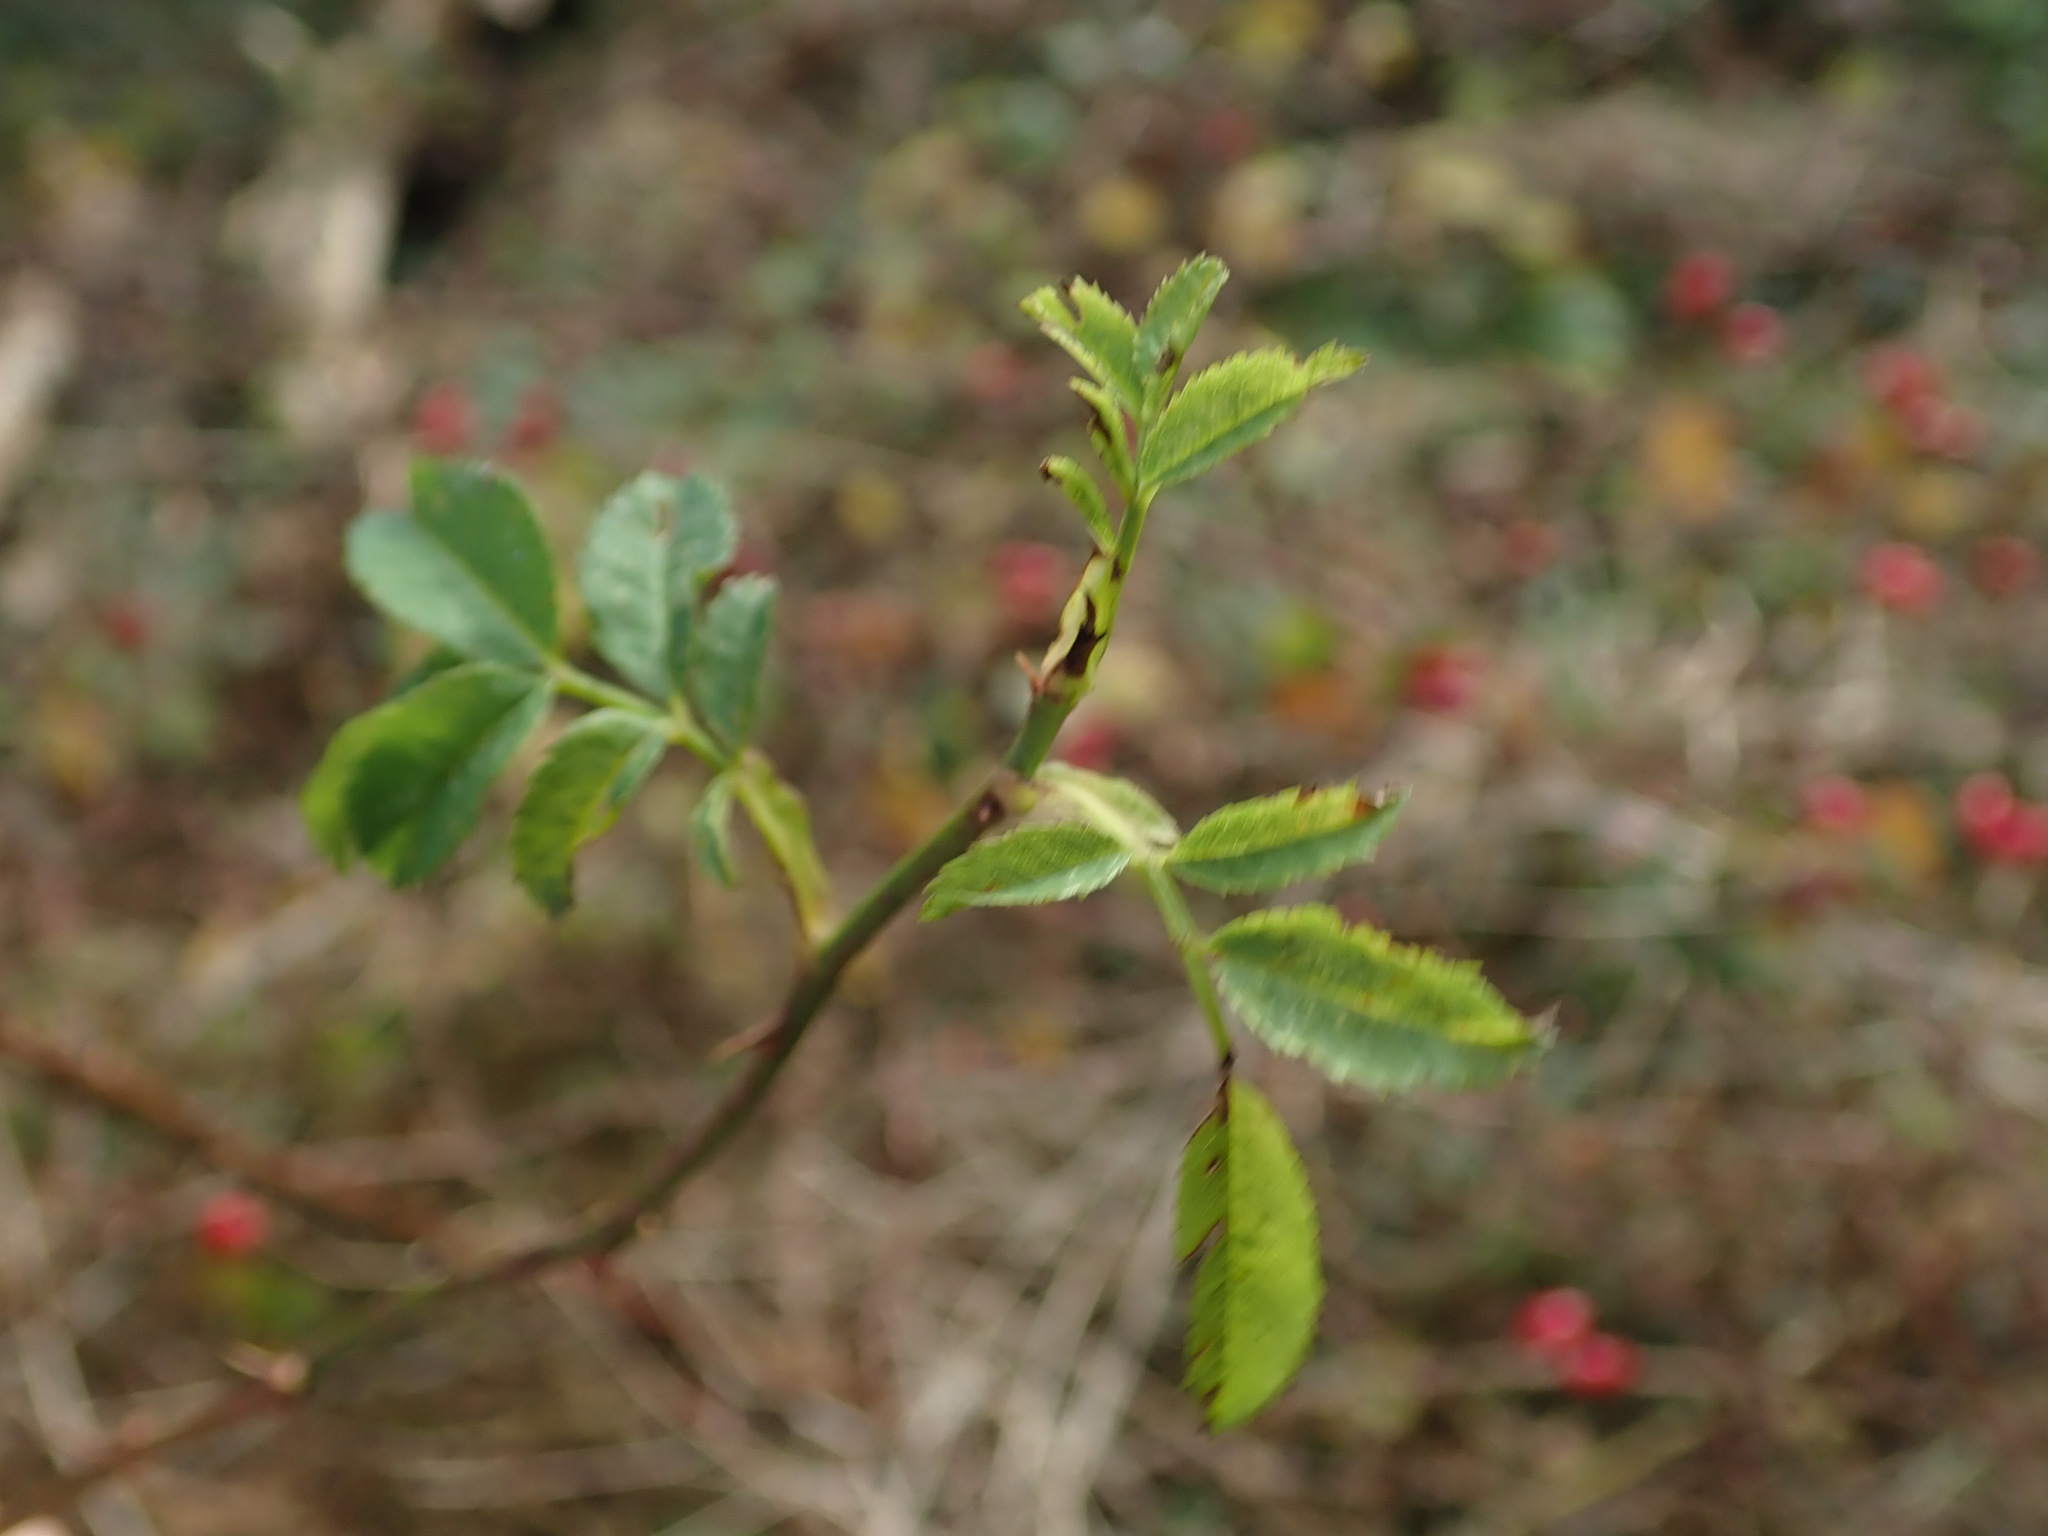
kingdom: Plantae
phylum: Tracheophyta
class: Magnoliopsida
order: Rosales
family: Rosaceae
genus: Rosa
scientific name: Rosa canina
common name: Dog rose
